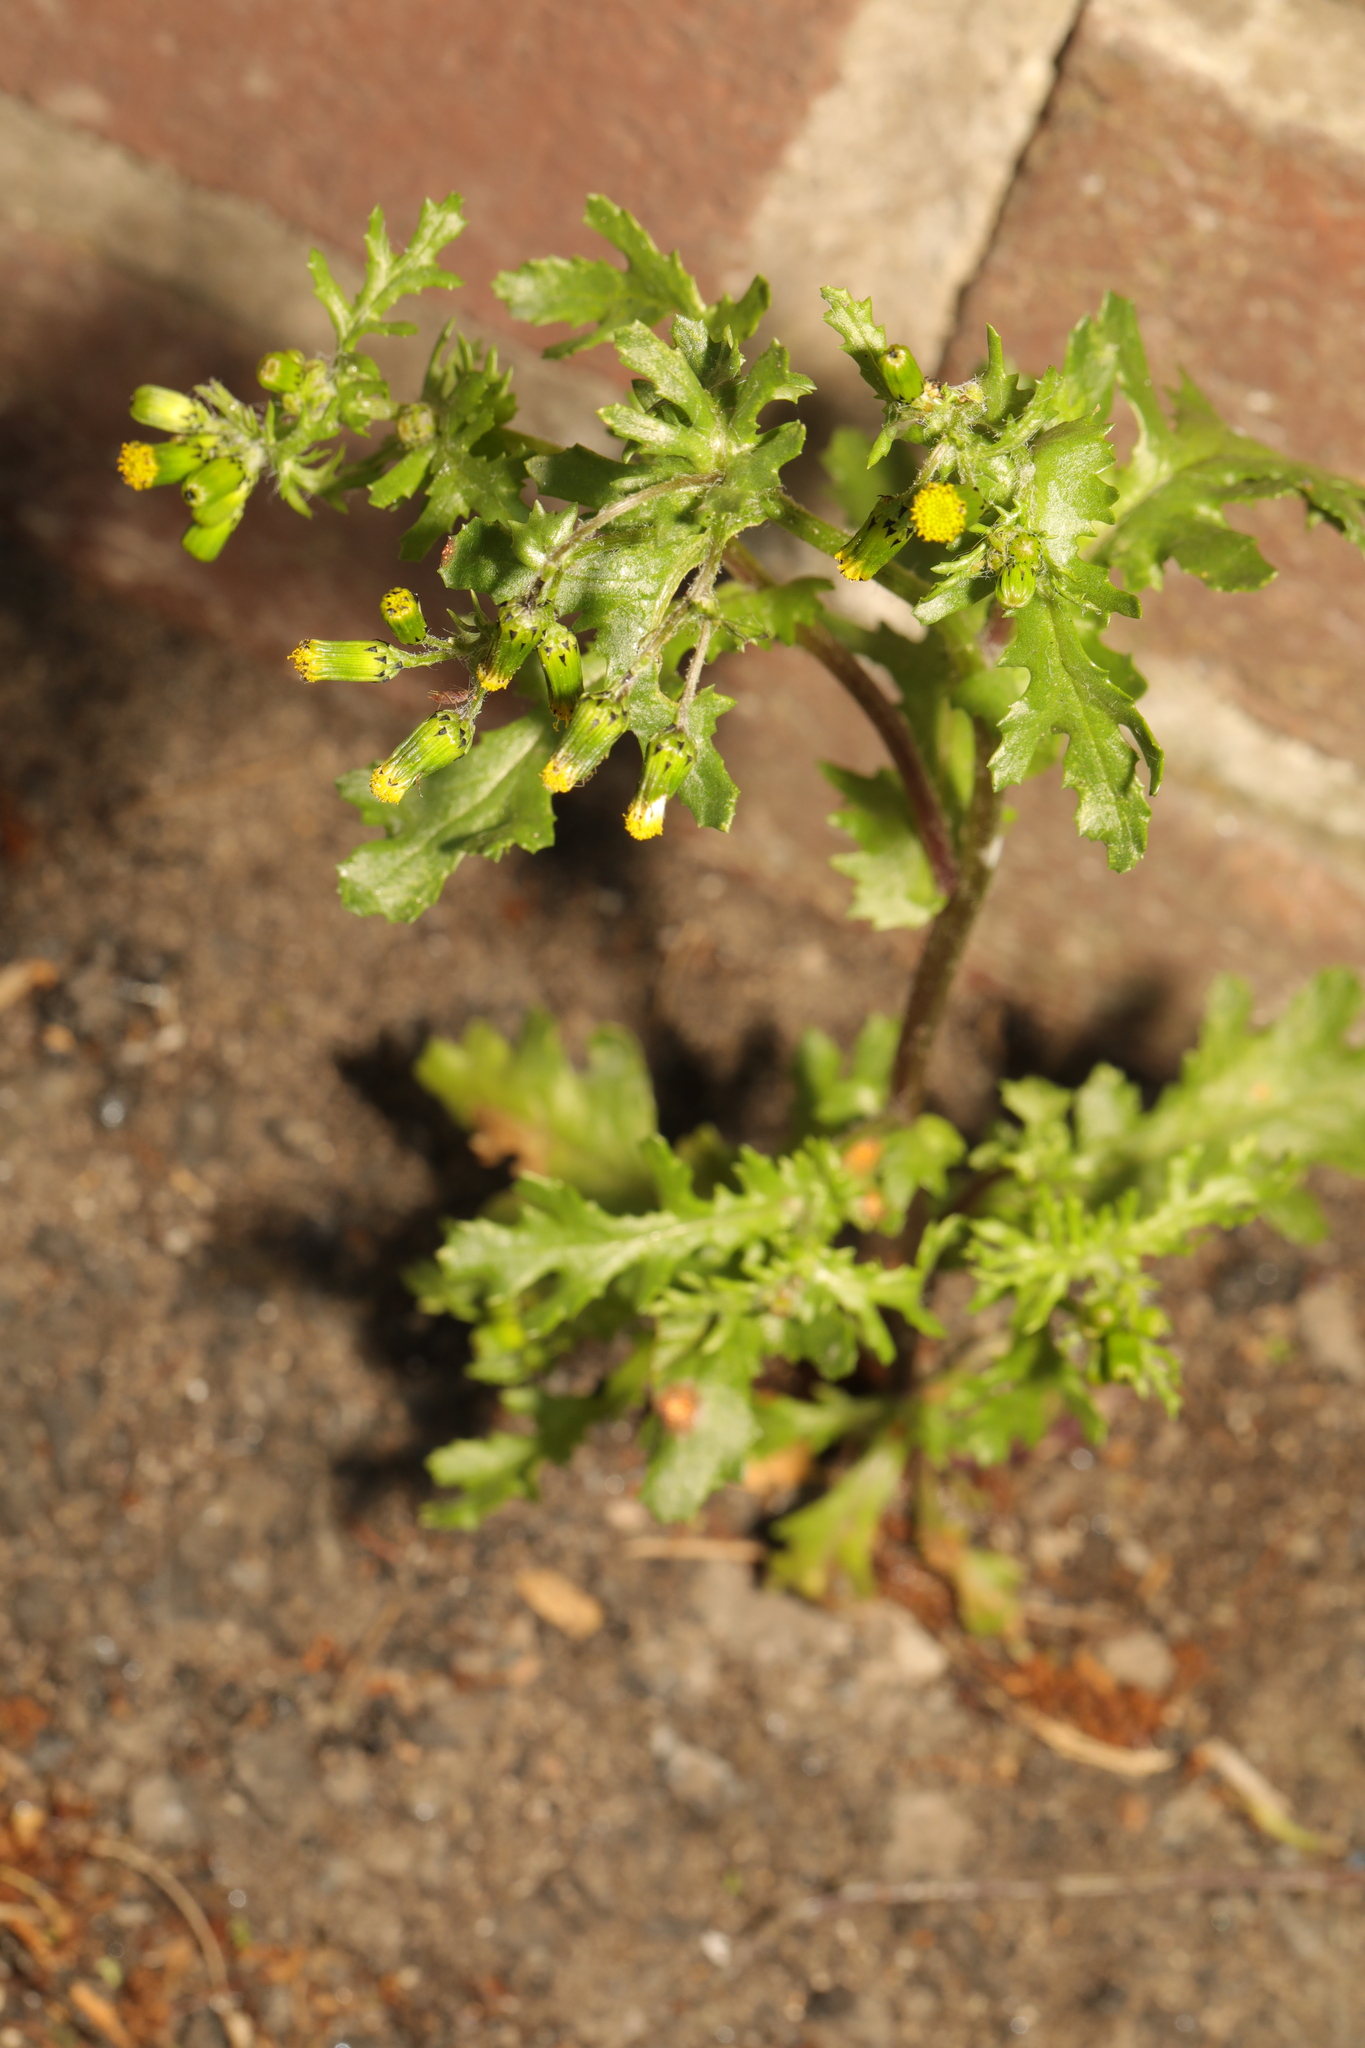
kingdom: Plantae
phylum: Tracheophyta
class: Magnoliopsida
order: Asterales
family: Asteraceae
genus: Senecio
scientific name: Senecio vulgaris
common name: Old-man-in-the-spring
